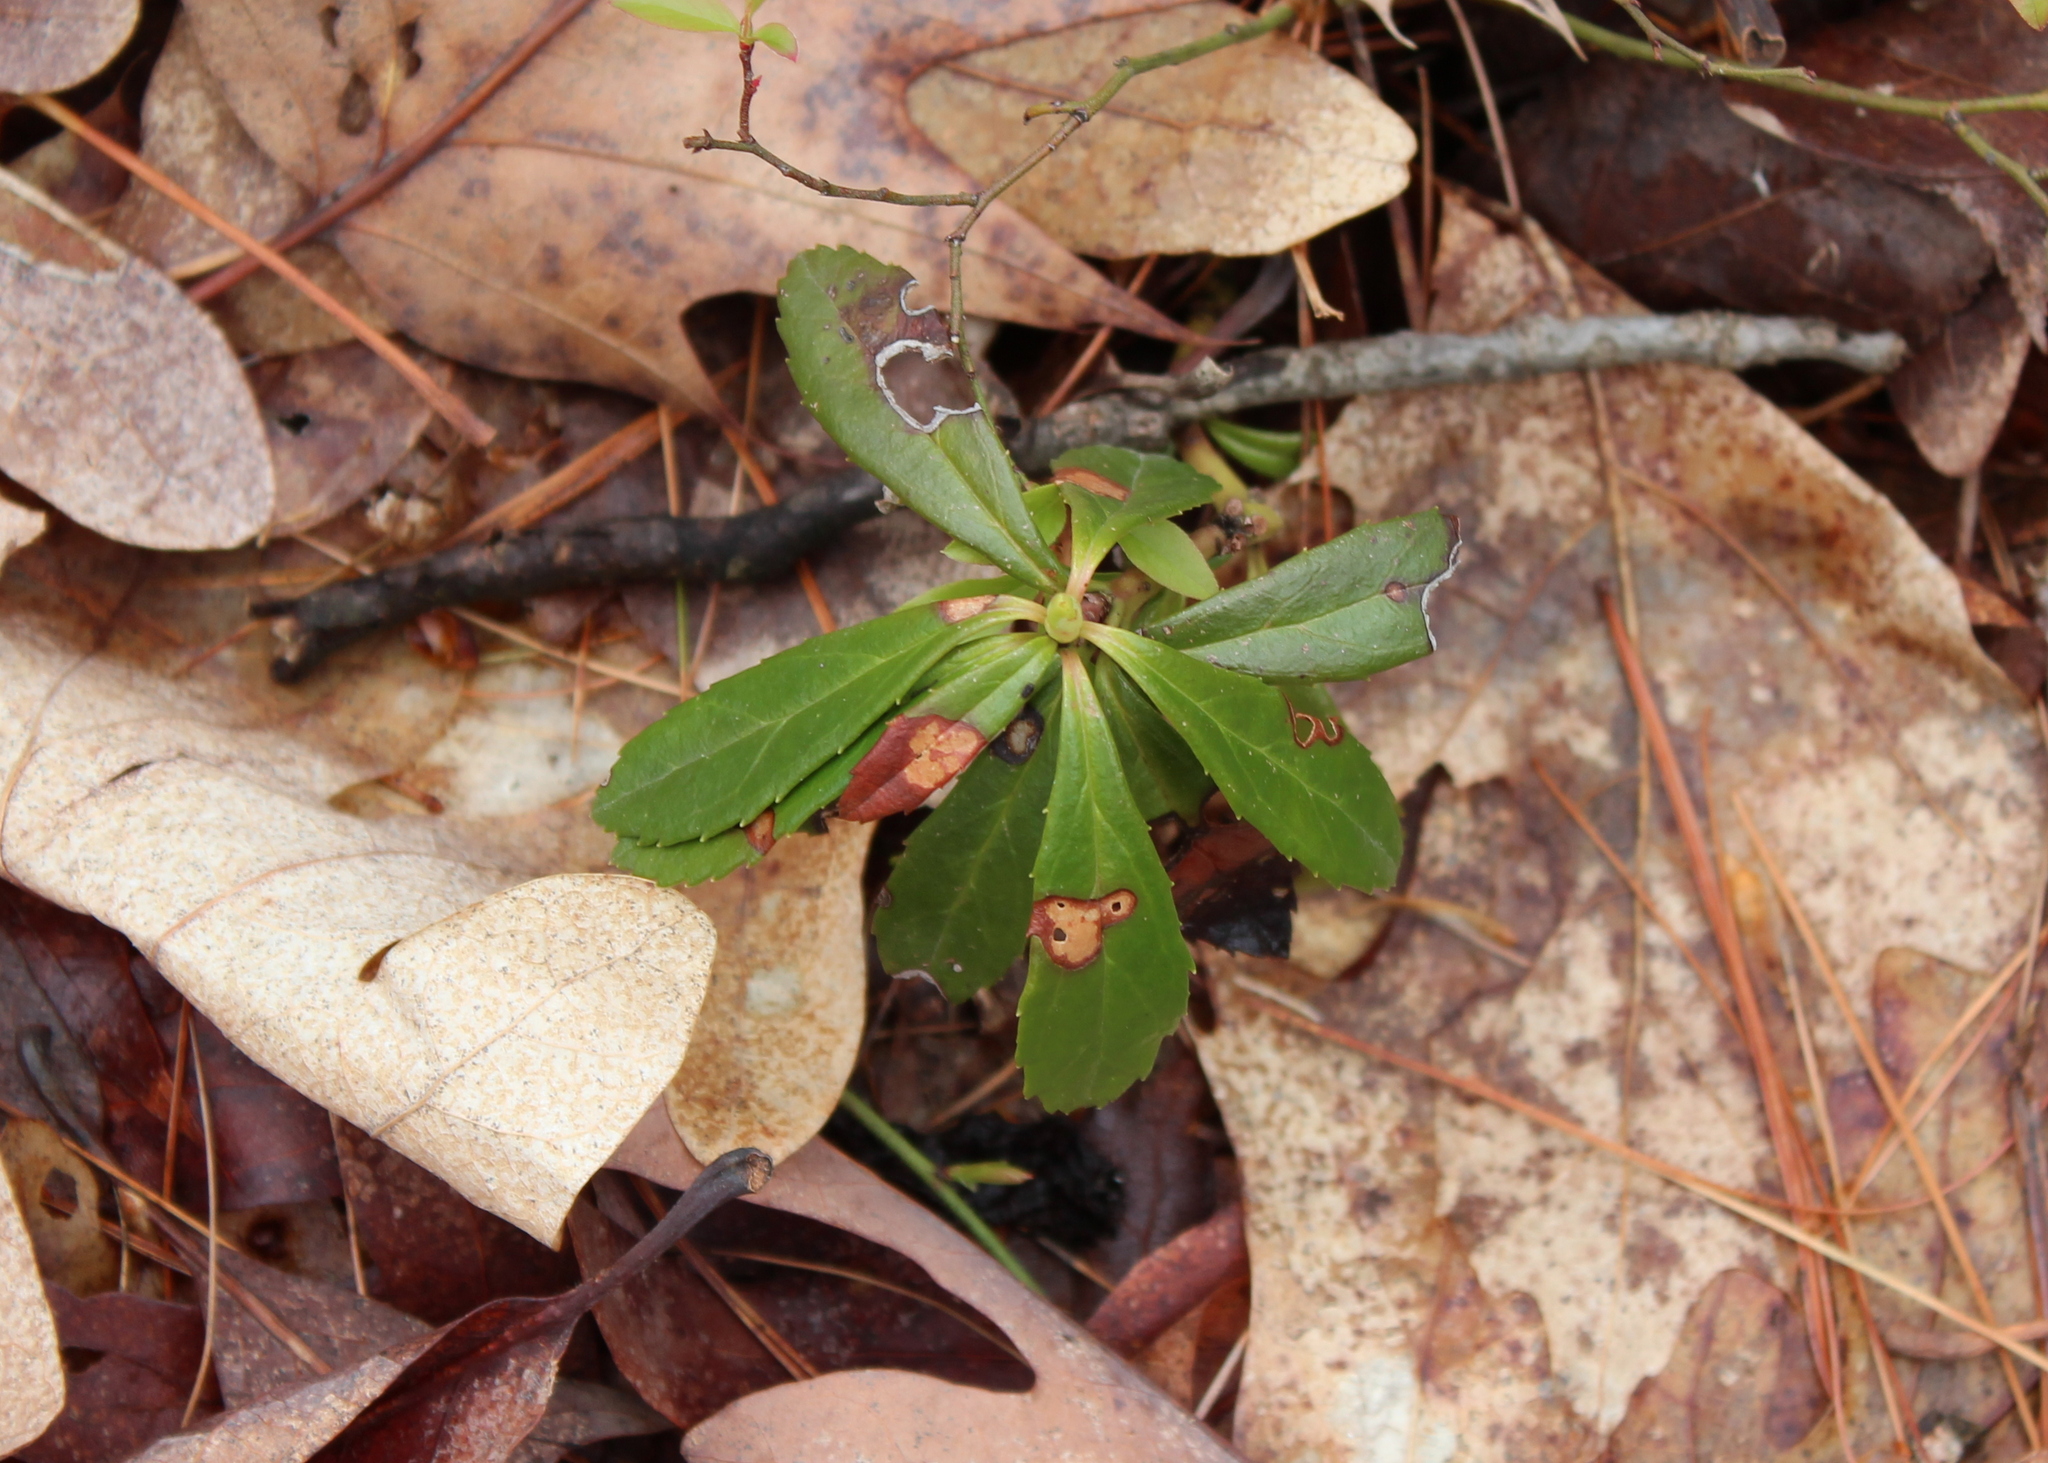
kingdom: Plantae
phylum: Tracheophyta
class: Magnoliopsida
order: Ericales
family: Ericaceae
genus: Chimaphila
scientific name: Chimaphila umbellata
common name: Pipsissewa
